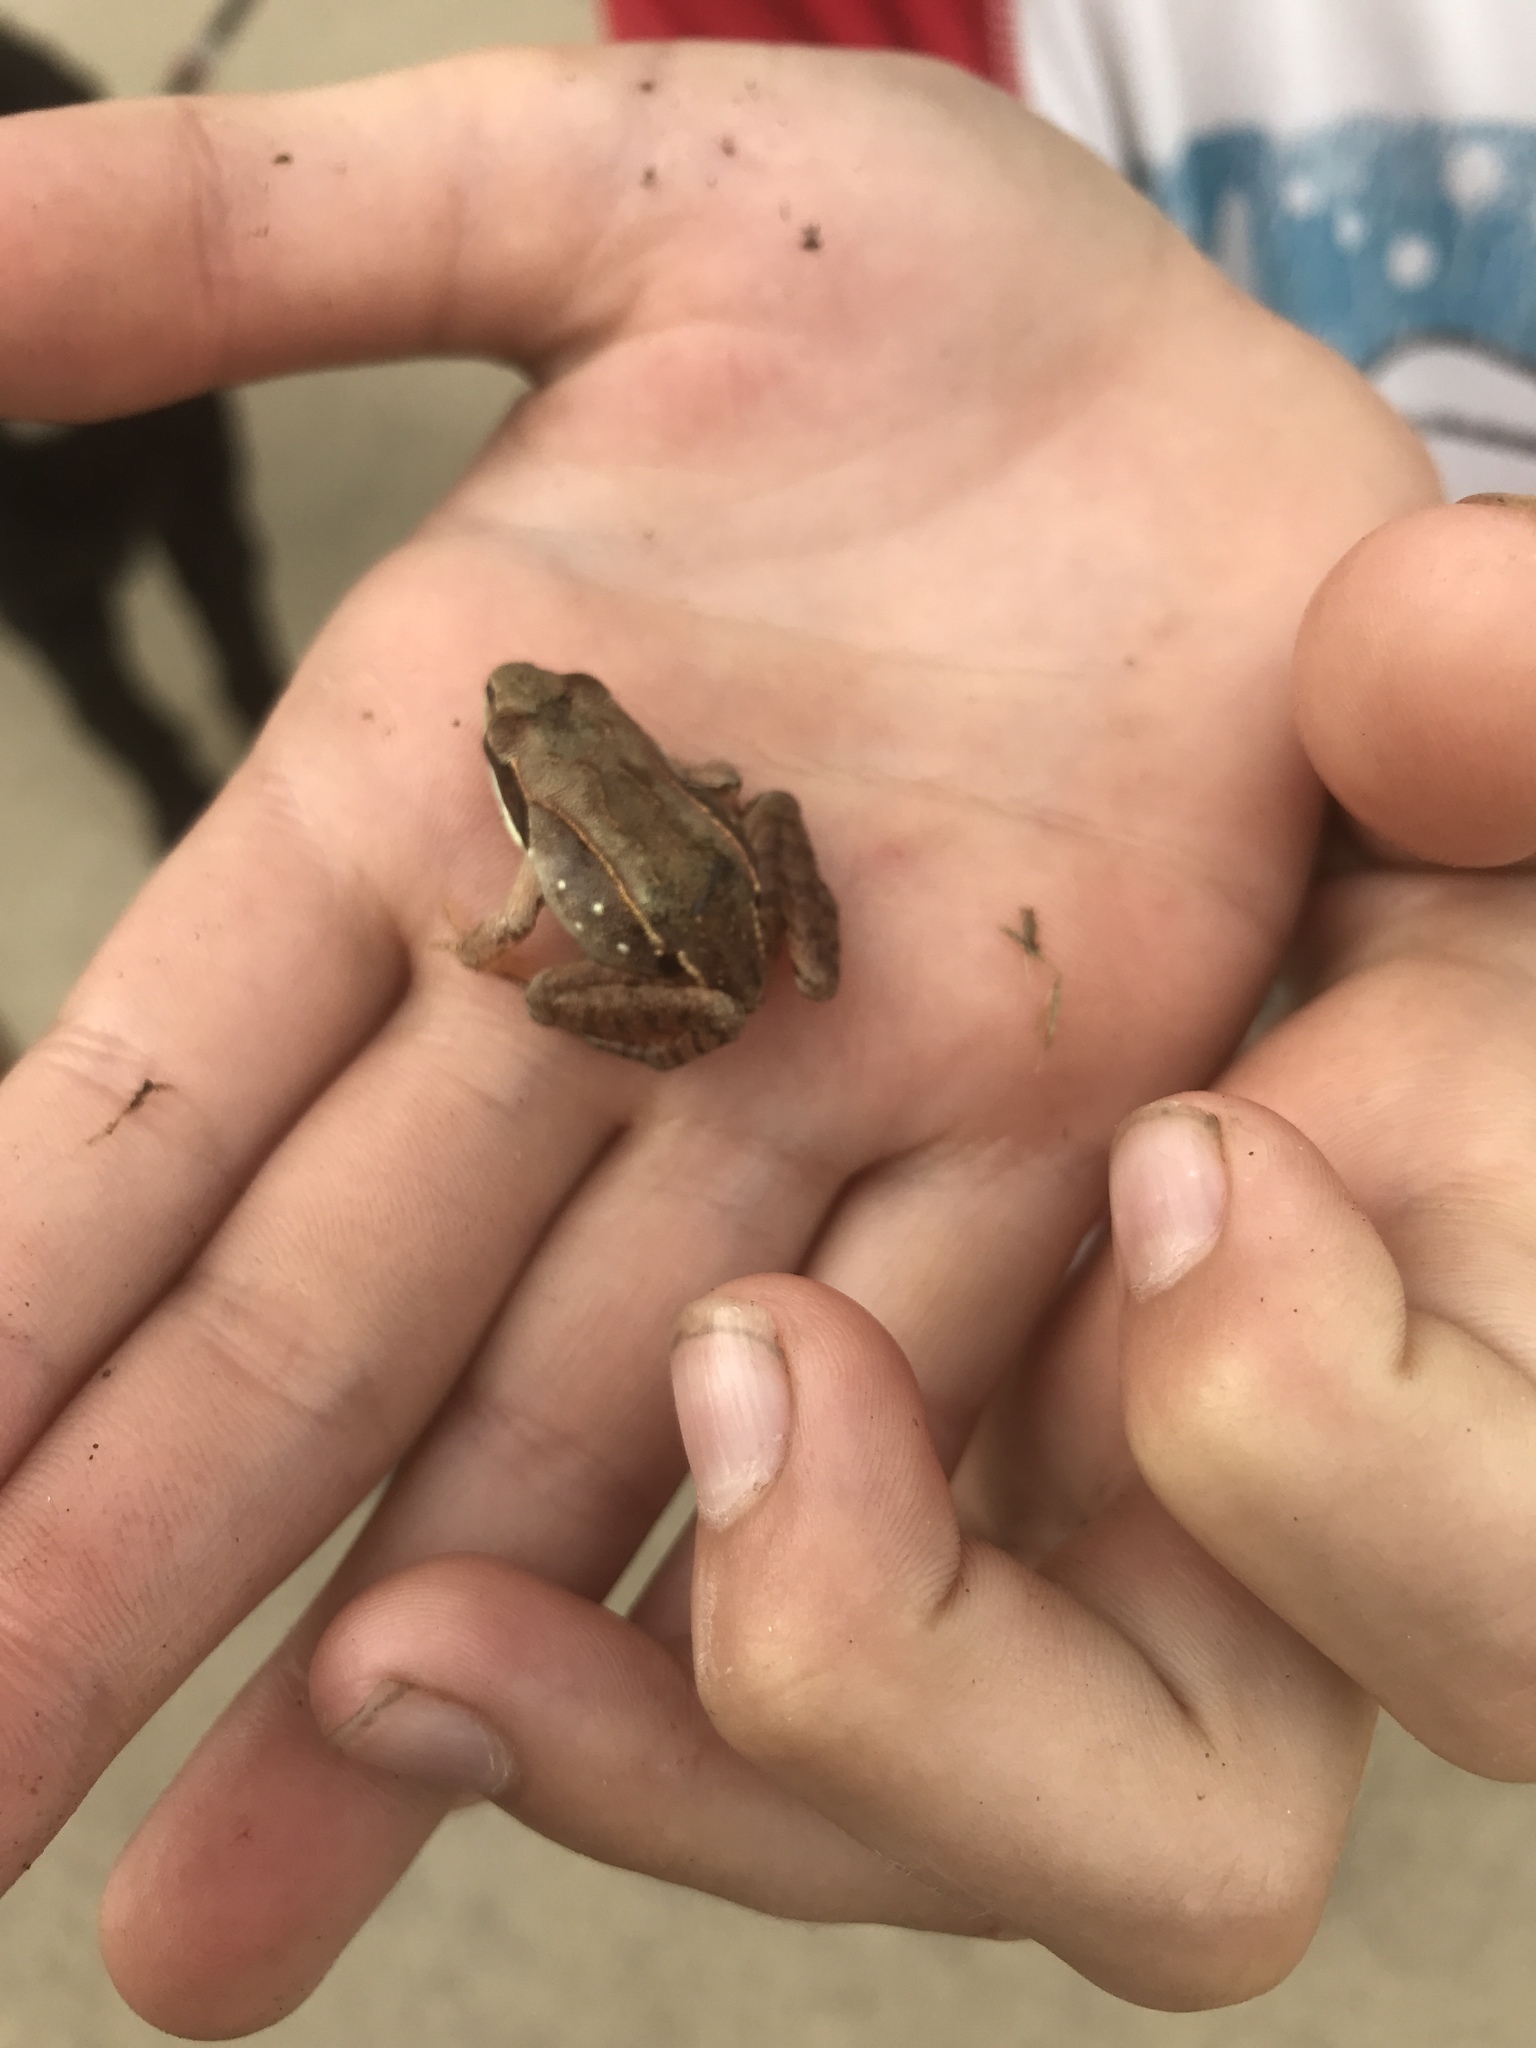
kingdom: Animalia
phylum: Chordata
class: Amphibia
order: Anura
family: Ranidae
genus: Lithobates
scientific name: Lithobates sylvaticus
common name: Wood frog
